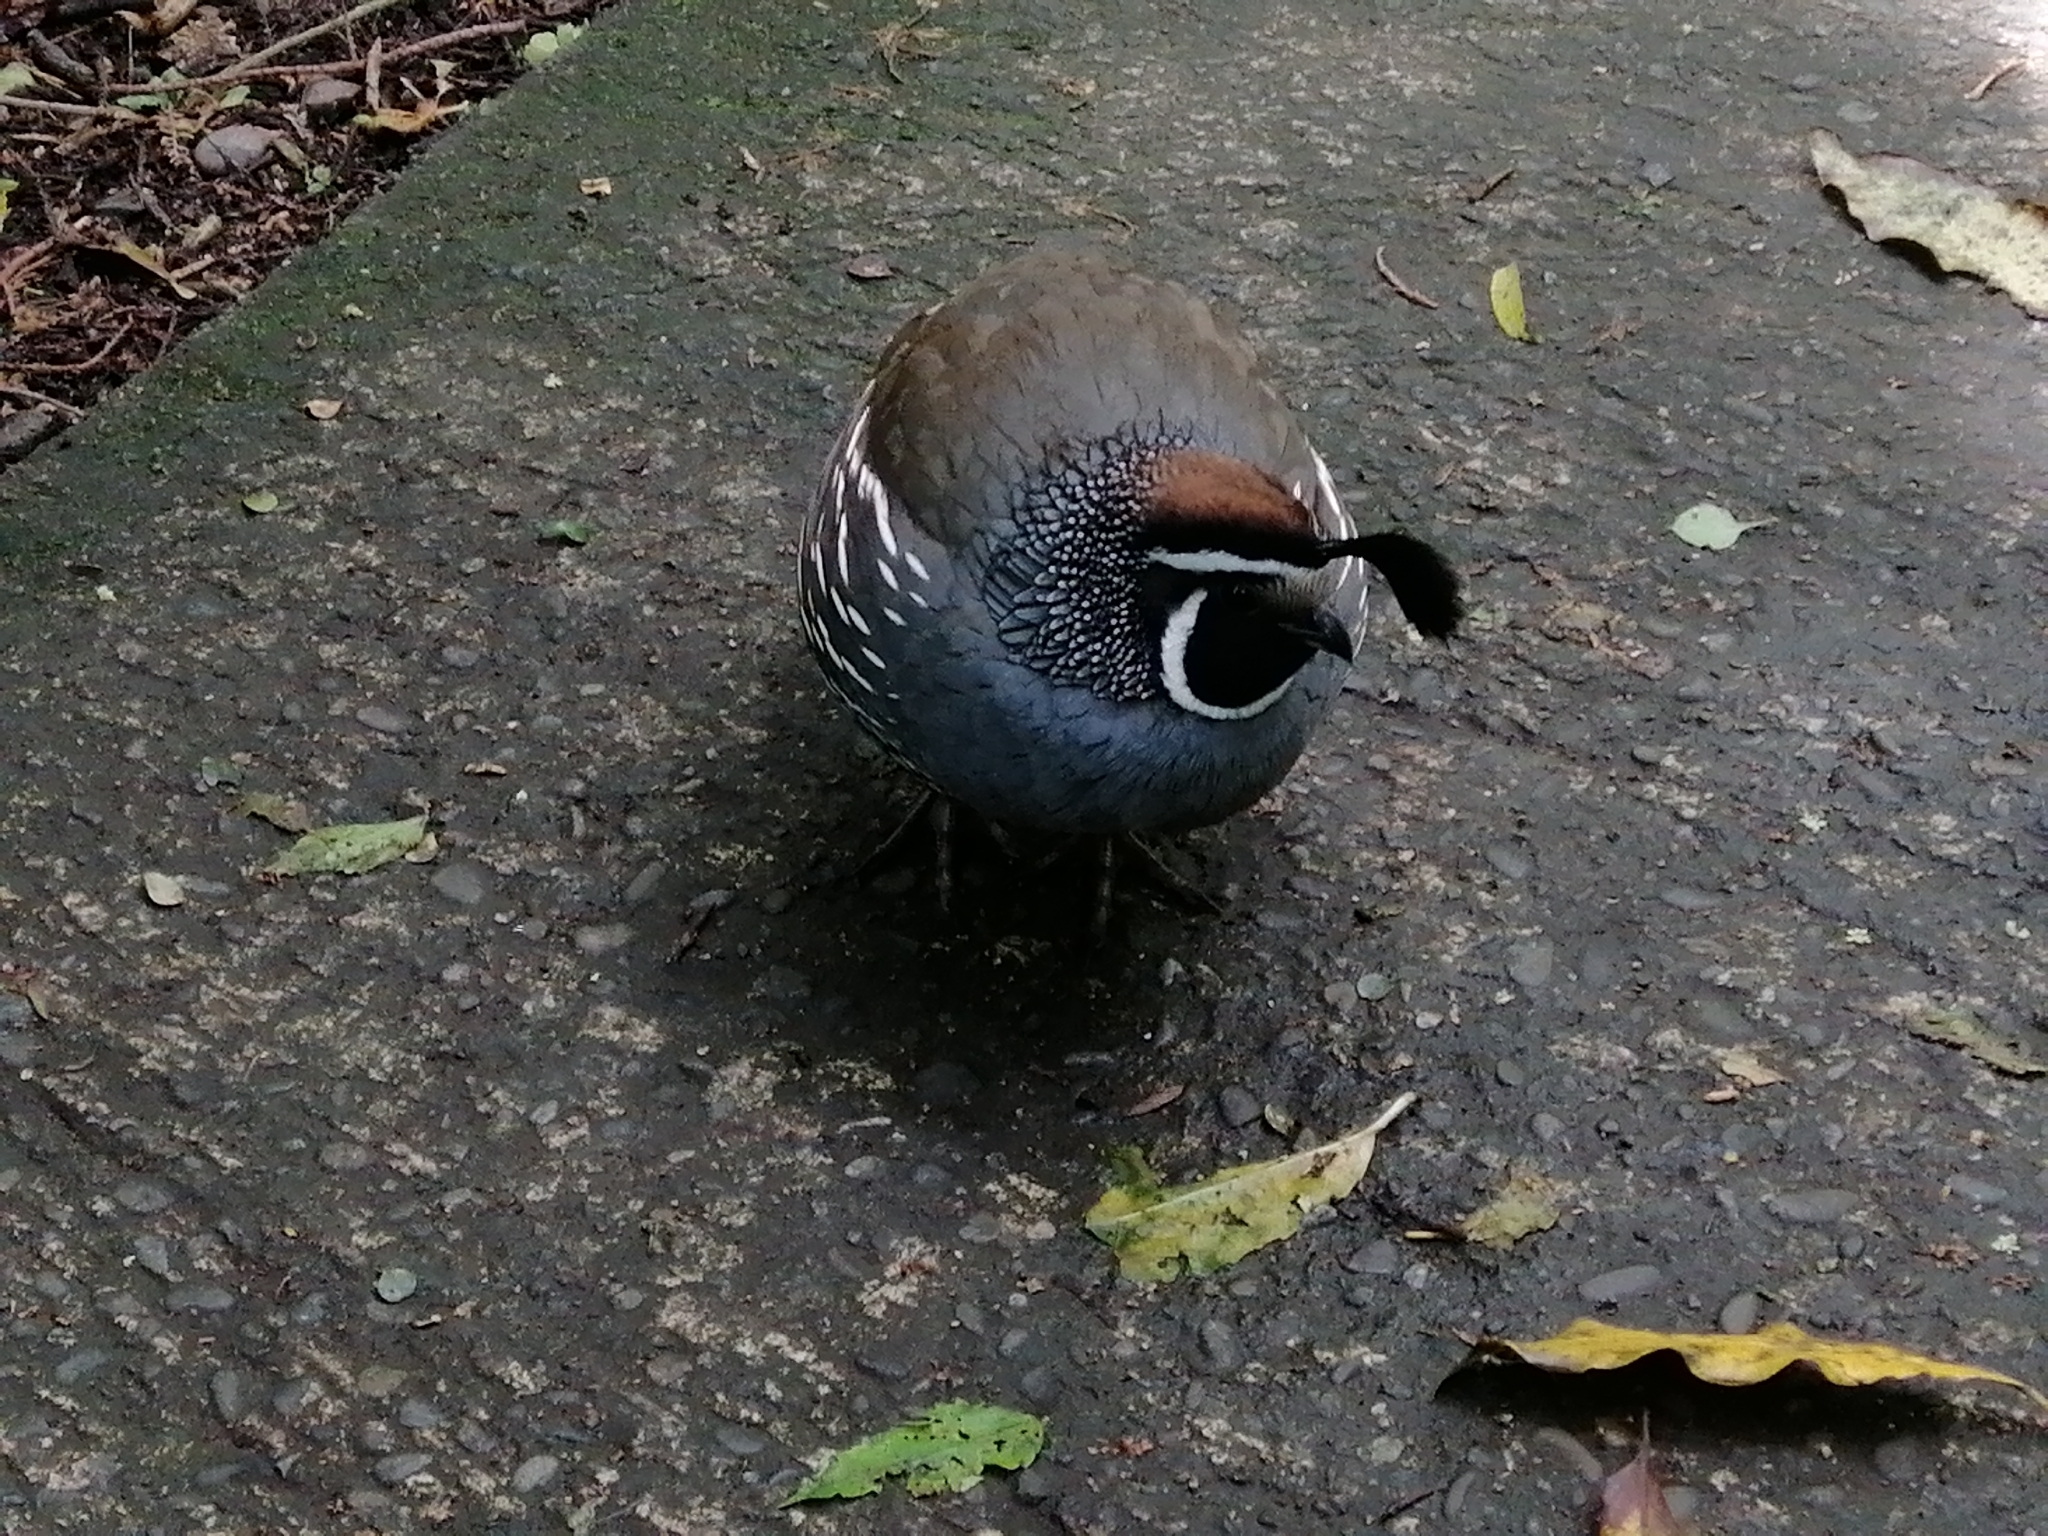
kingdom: Animalia
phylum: Chordata
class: Aves
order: Galliformes
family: Odontophoridae
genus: Callipepla
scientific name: Callipepla californica
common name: California quail
